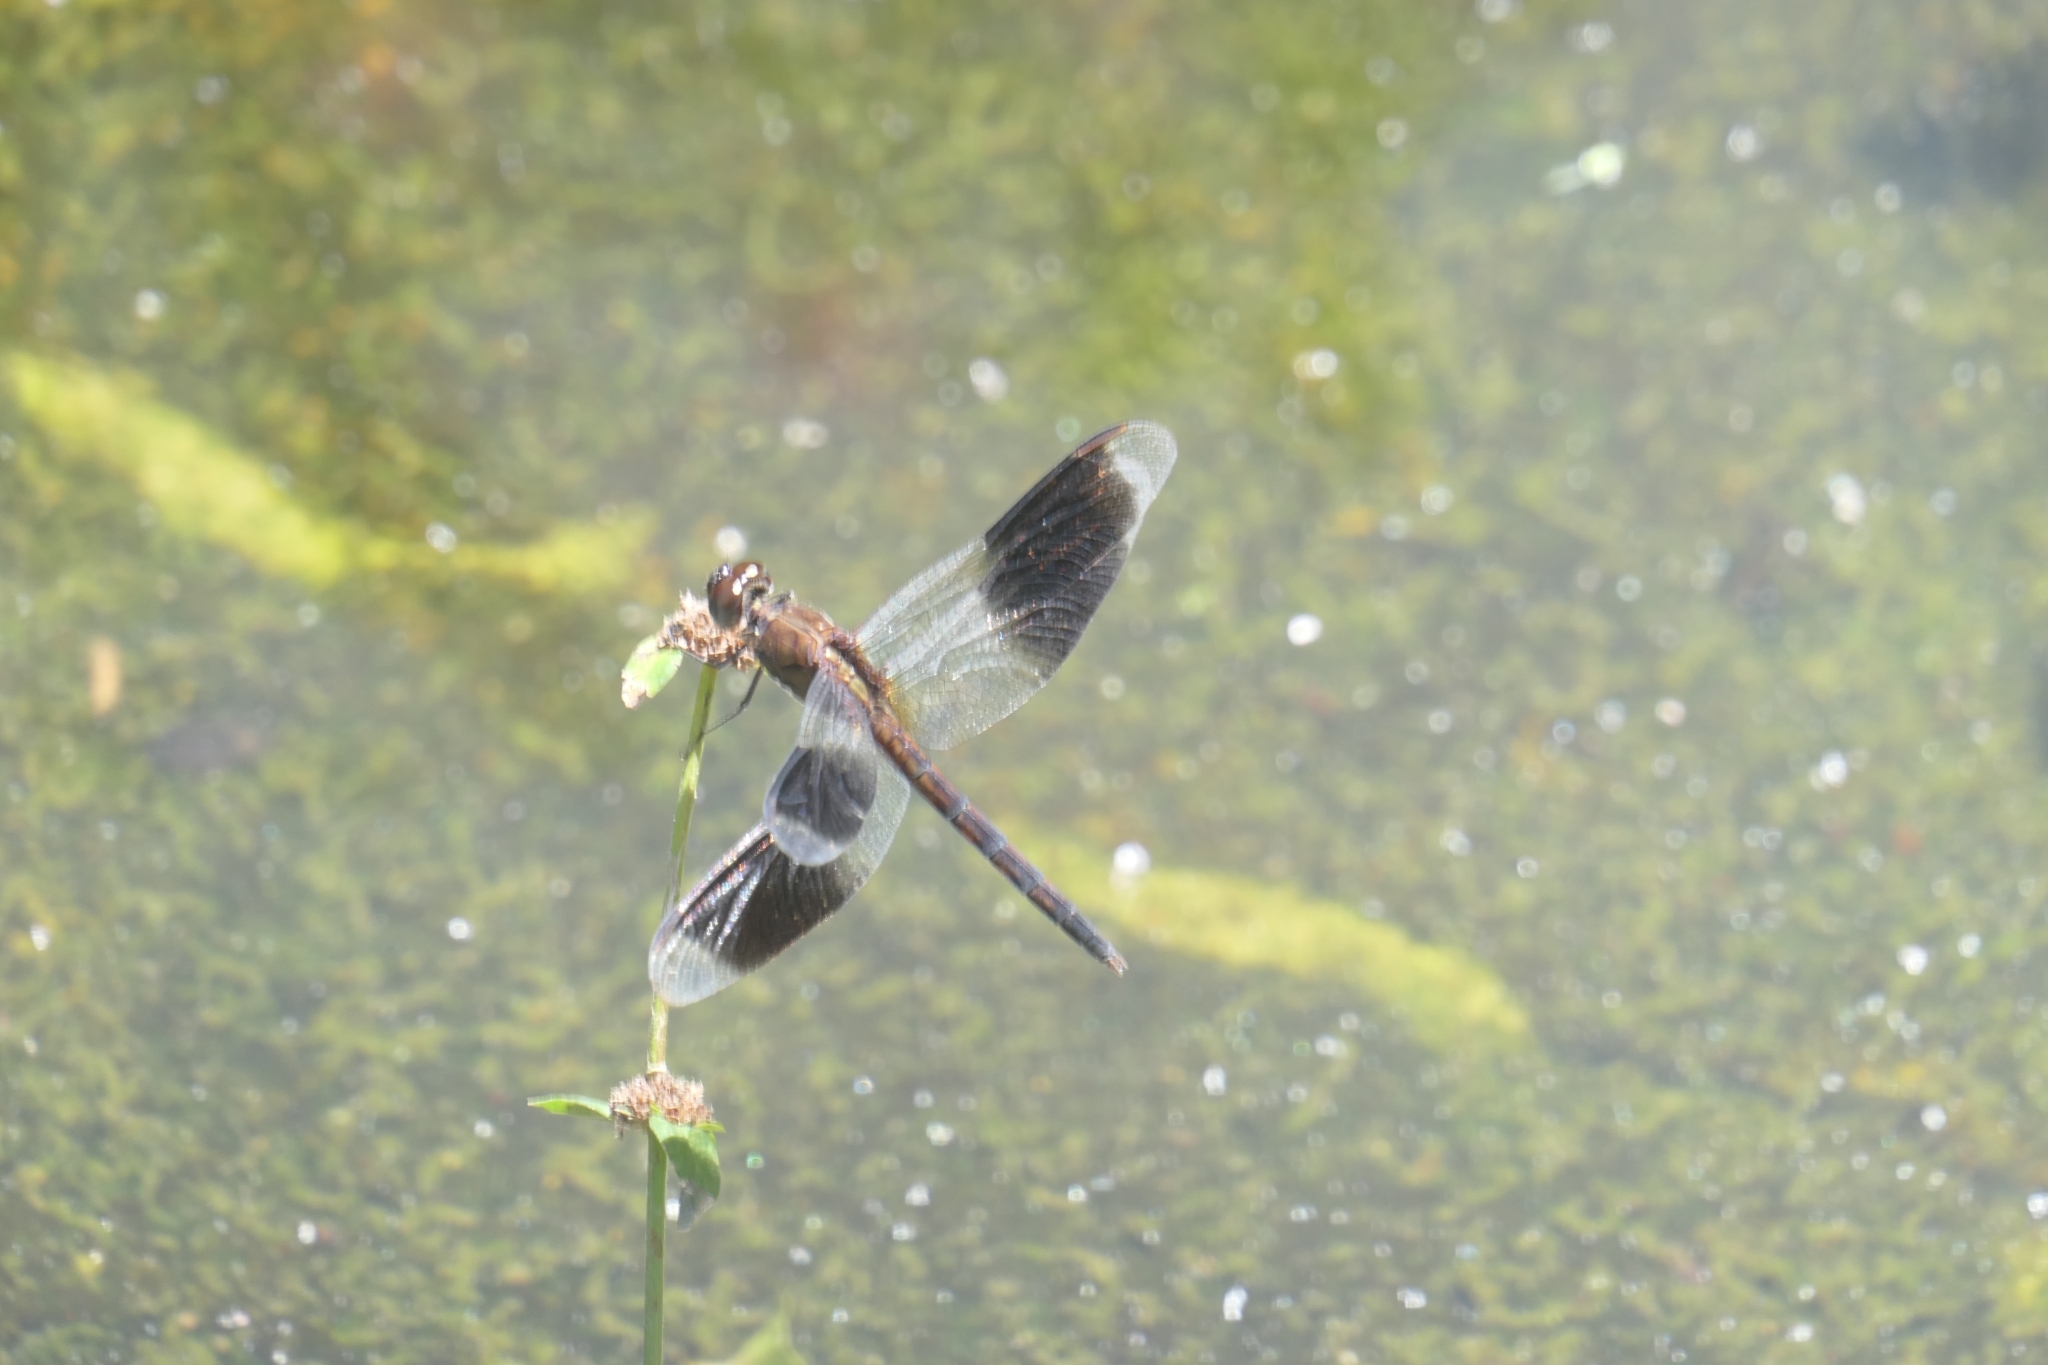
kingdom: Animalia
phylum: Arthropoda
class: Insecta
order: Odonata
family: Libellulidae
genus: Erythrodiplax
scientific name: Erythrodiplax umbrata
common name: Band-winged dragonlet
